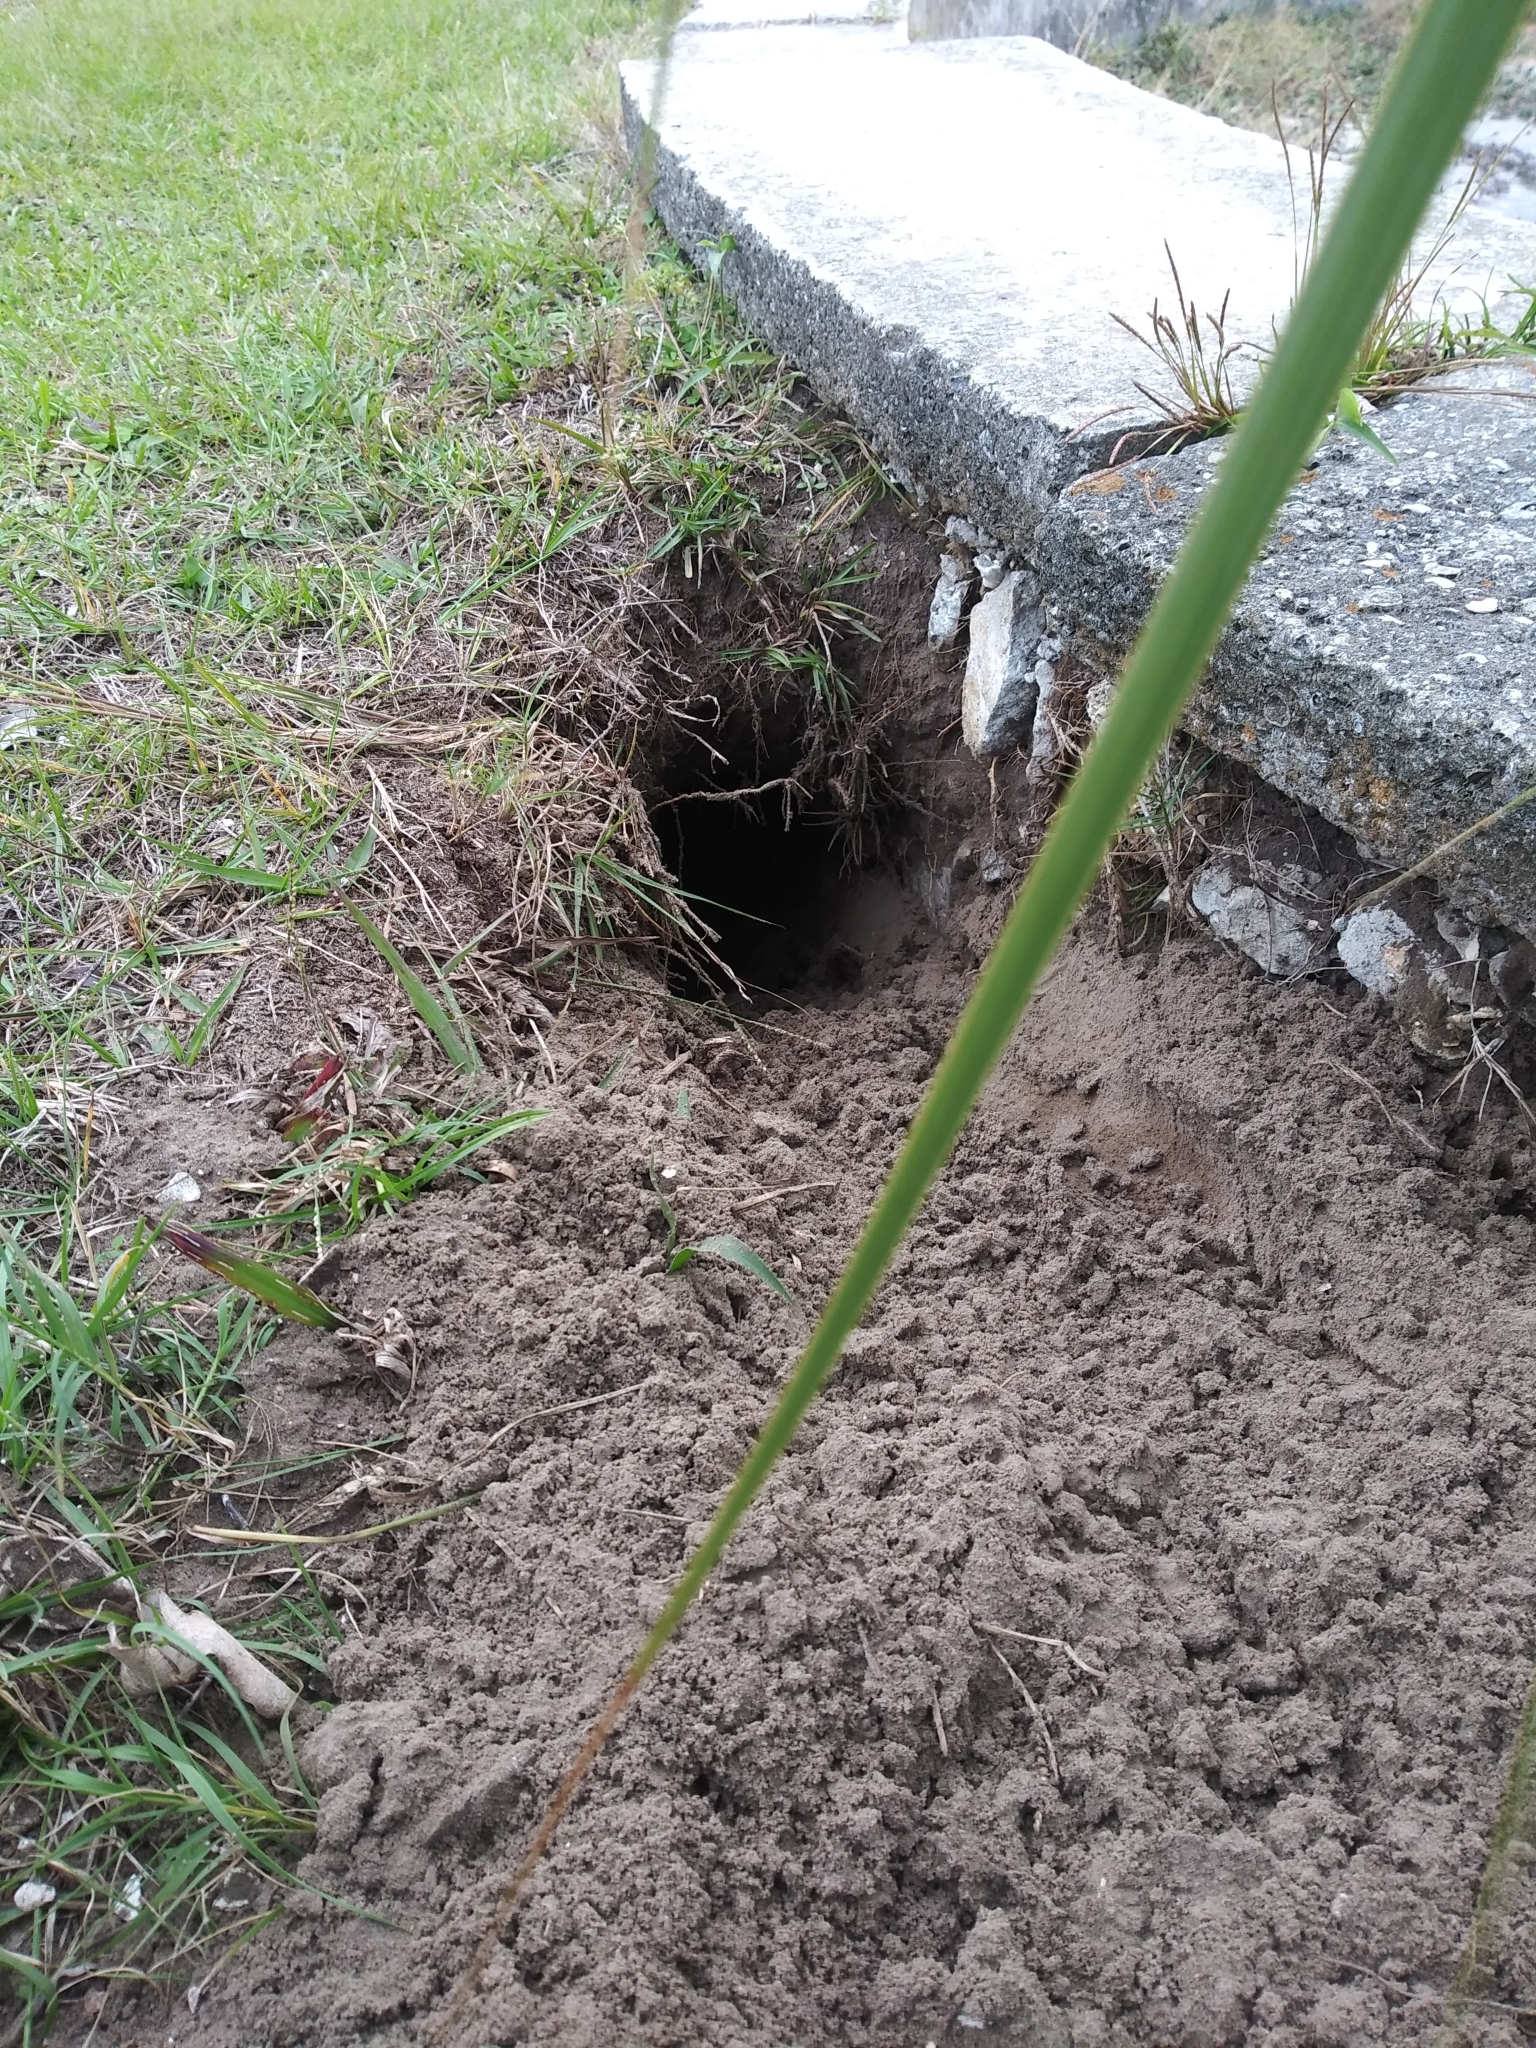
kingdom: Animalia
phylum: Chordata
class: Mammalia
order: Cingulata
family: Dasypodidae
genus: Dasypus
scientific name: Dasypus novemcinctus
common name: Nine-banded armadillo
